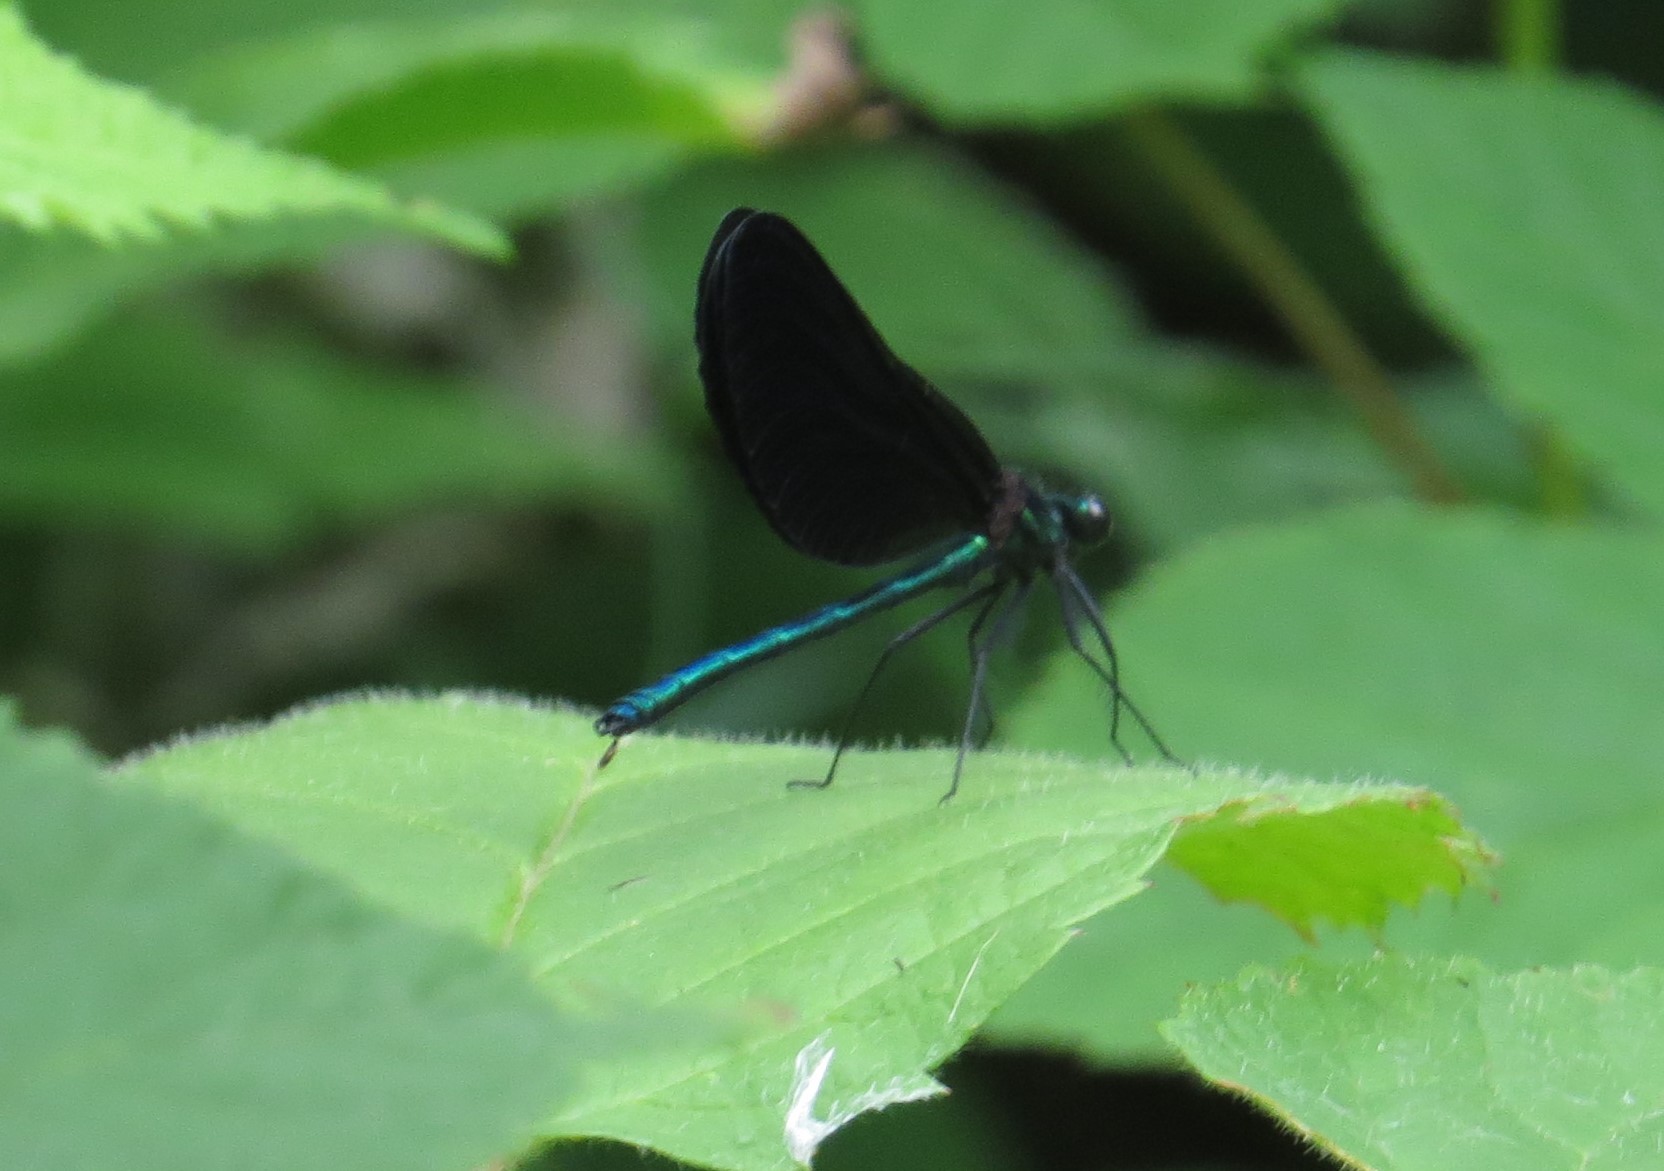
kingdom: Animalia
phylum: Arthropoda
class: Insecta
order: Odonata
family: Calopterygidae
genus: Calopteryx
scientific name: Calopteryx maculata
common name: Ebony jewelwing
